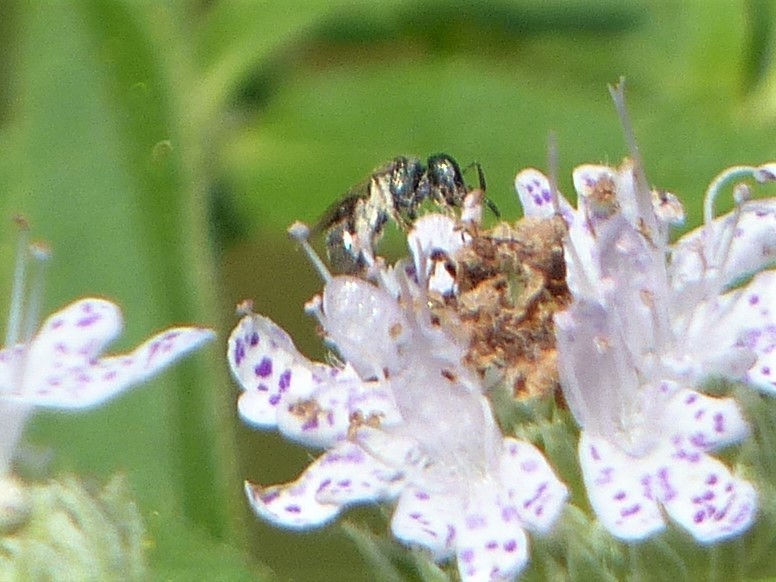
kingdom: Animalia
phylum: Arthropoda
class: Insecta
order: Hymenoptera
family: Halictidae
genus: Dialictus
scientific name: Dialictus
